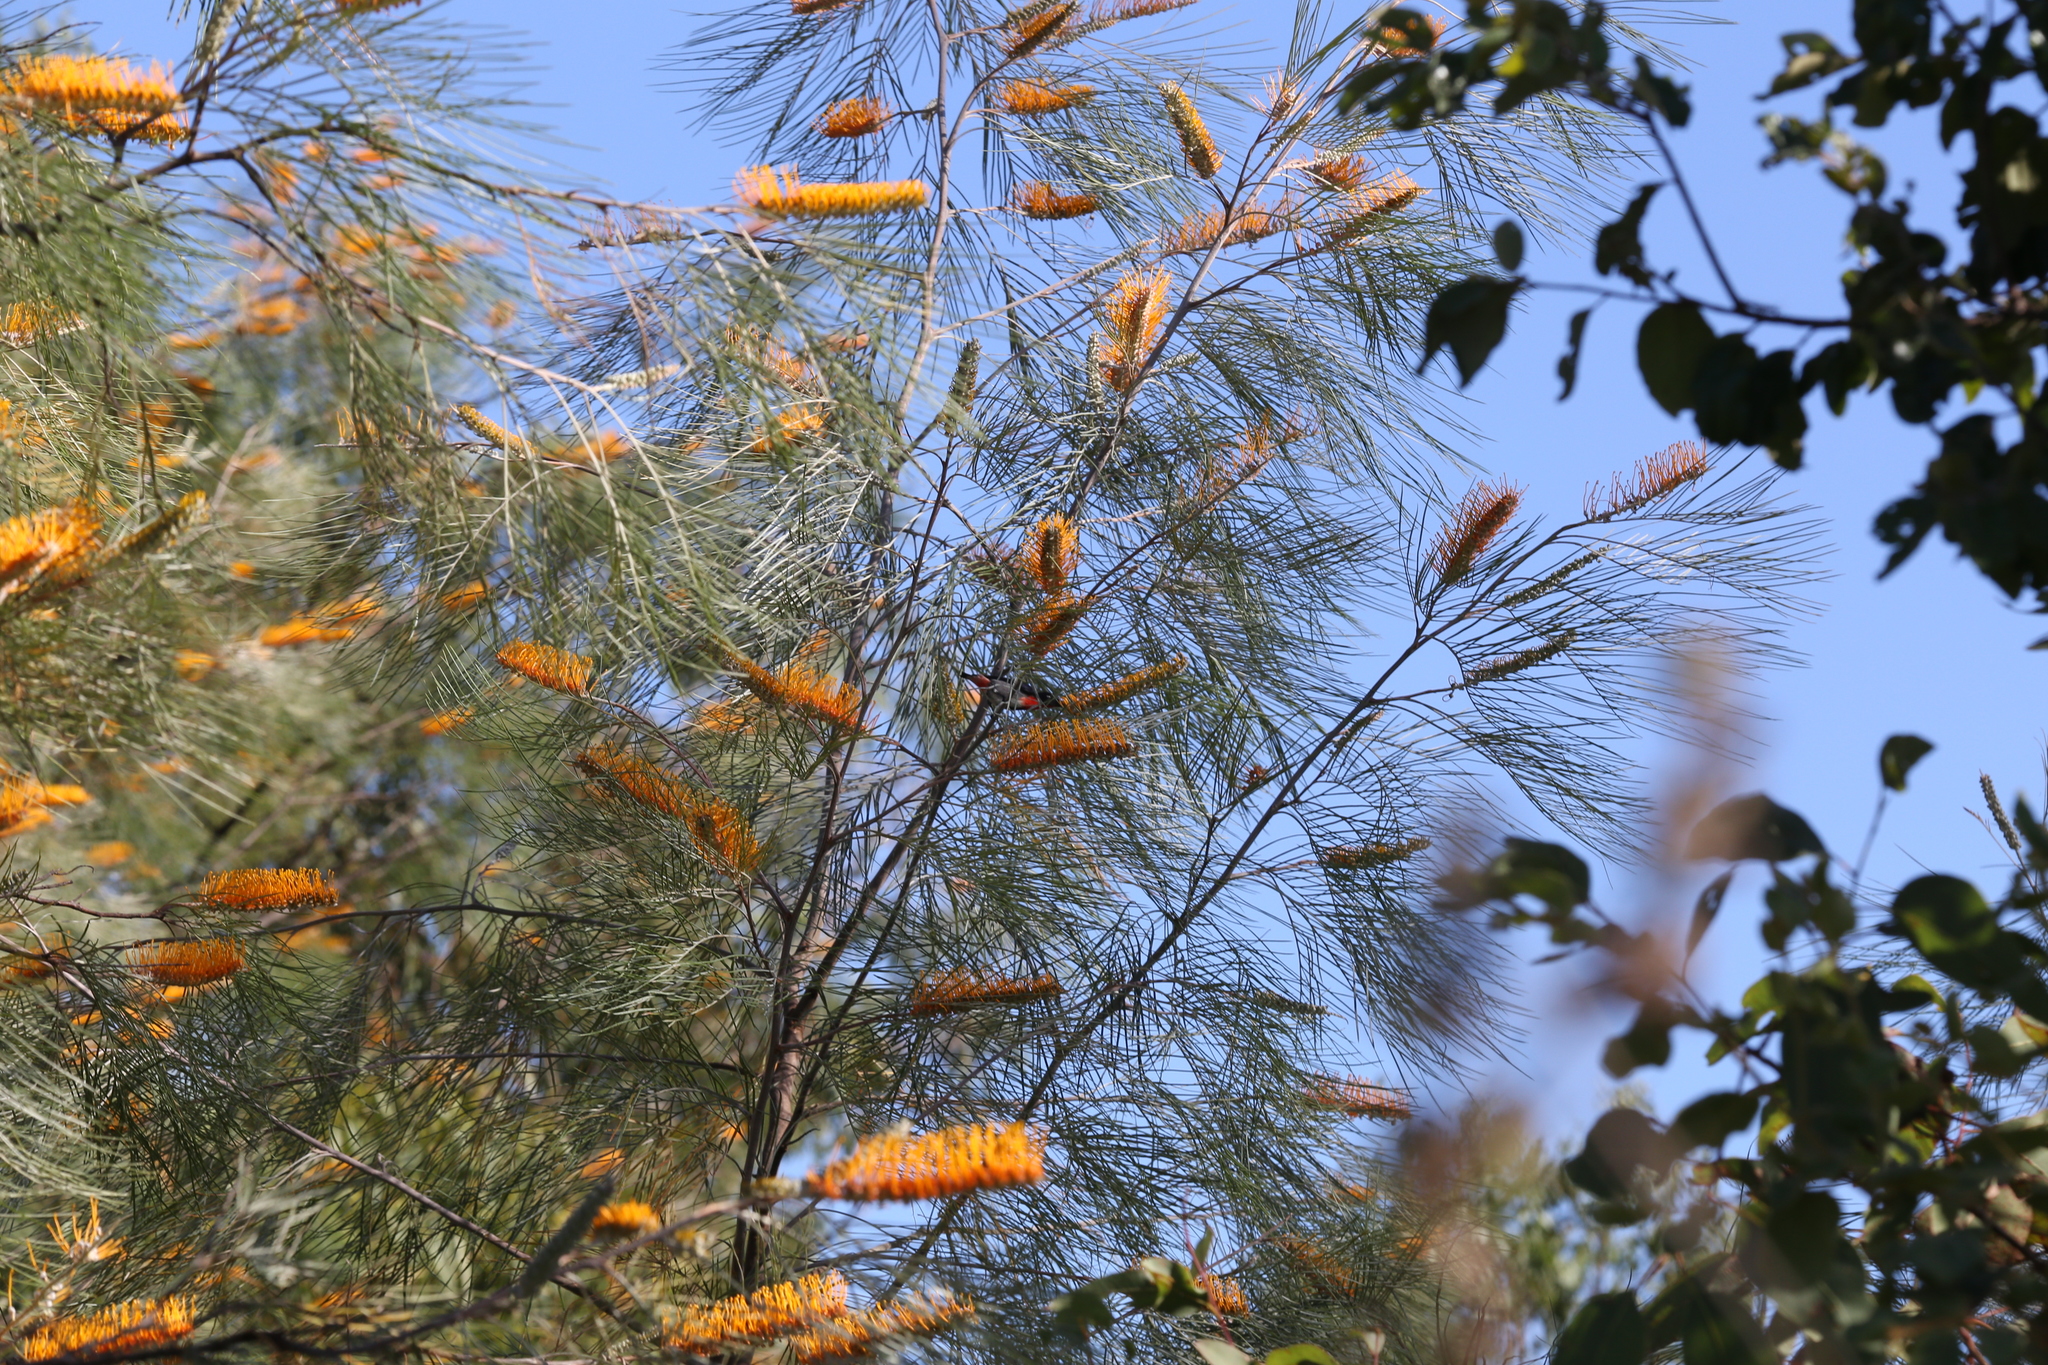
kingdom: Plantae
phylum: Tracheophyta
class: Magnoliopsida
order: Proteales
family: Proteaceae
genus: Grevillea
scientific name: Grevillea pteridifolia
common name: Golden grevillea
